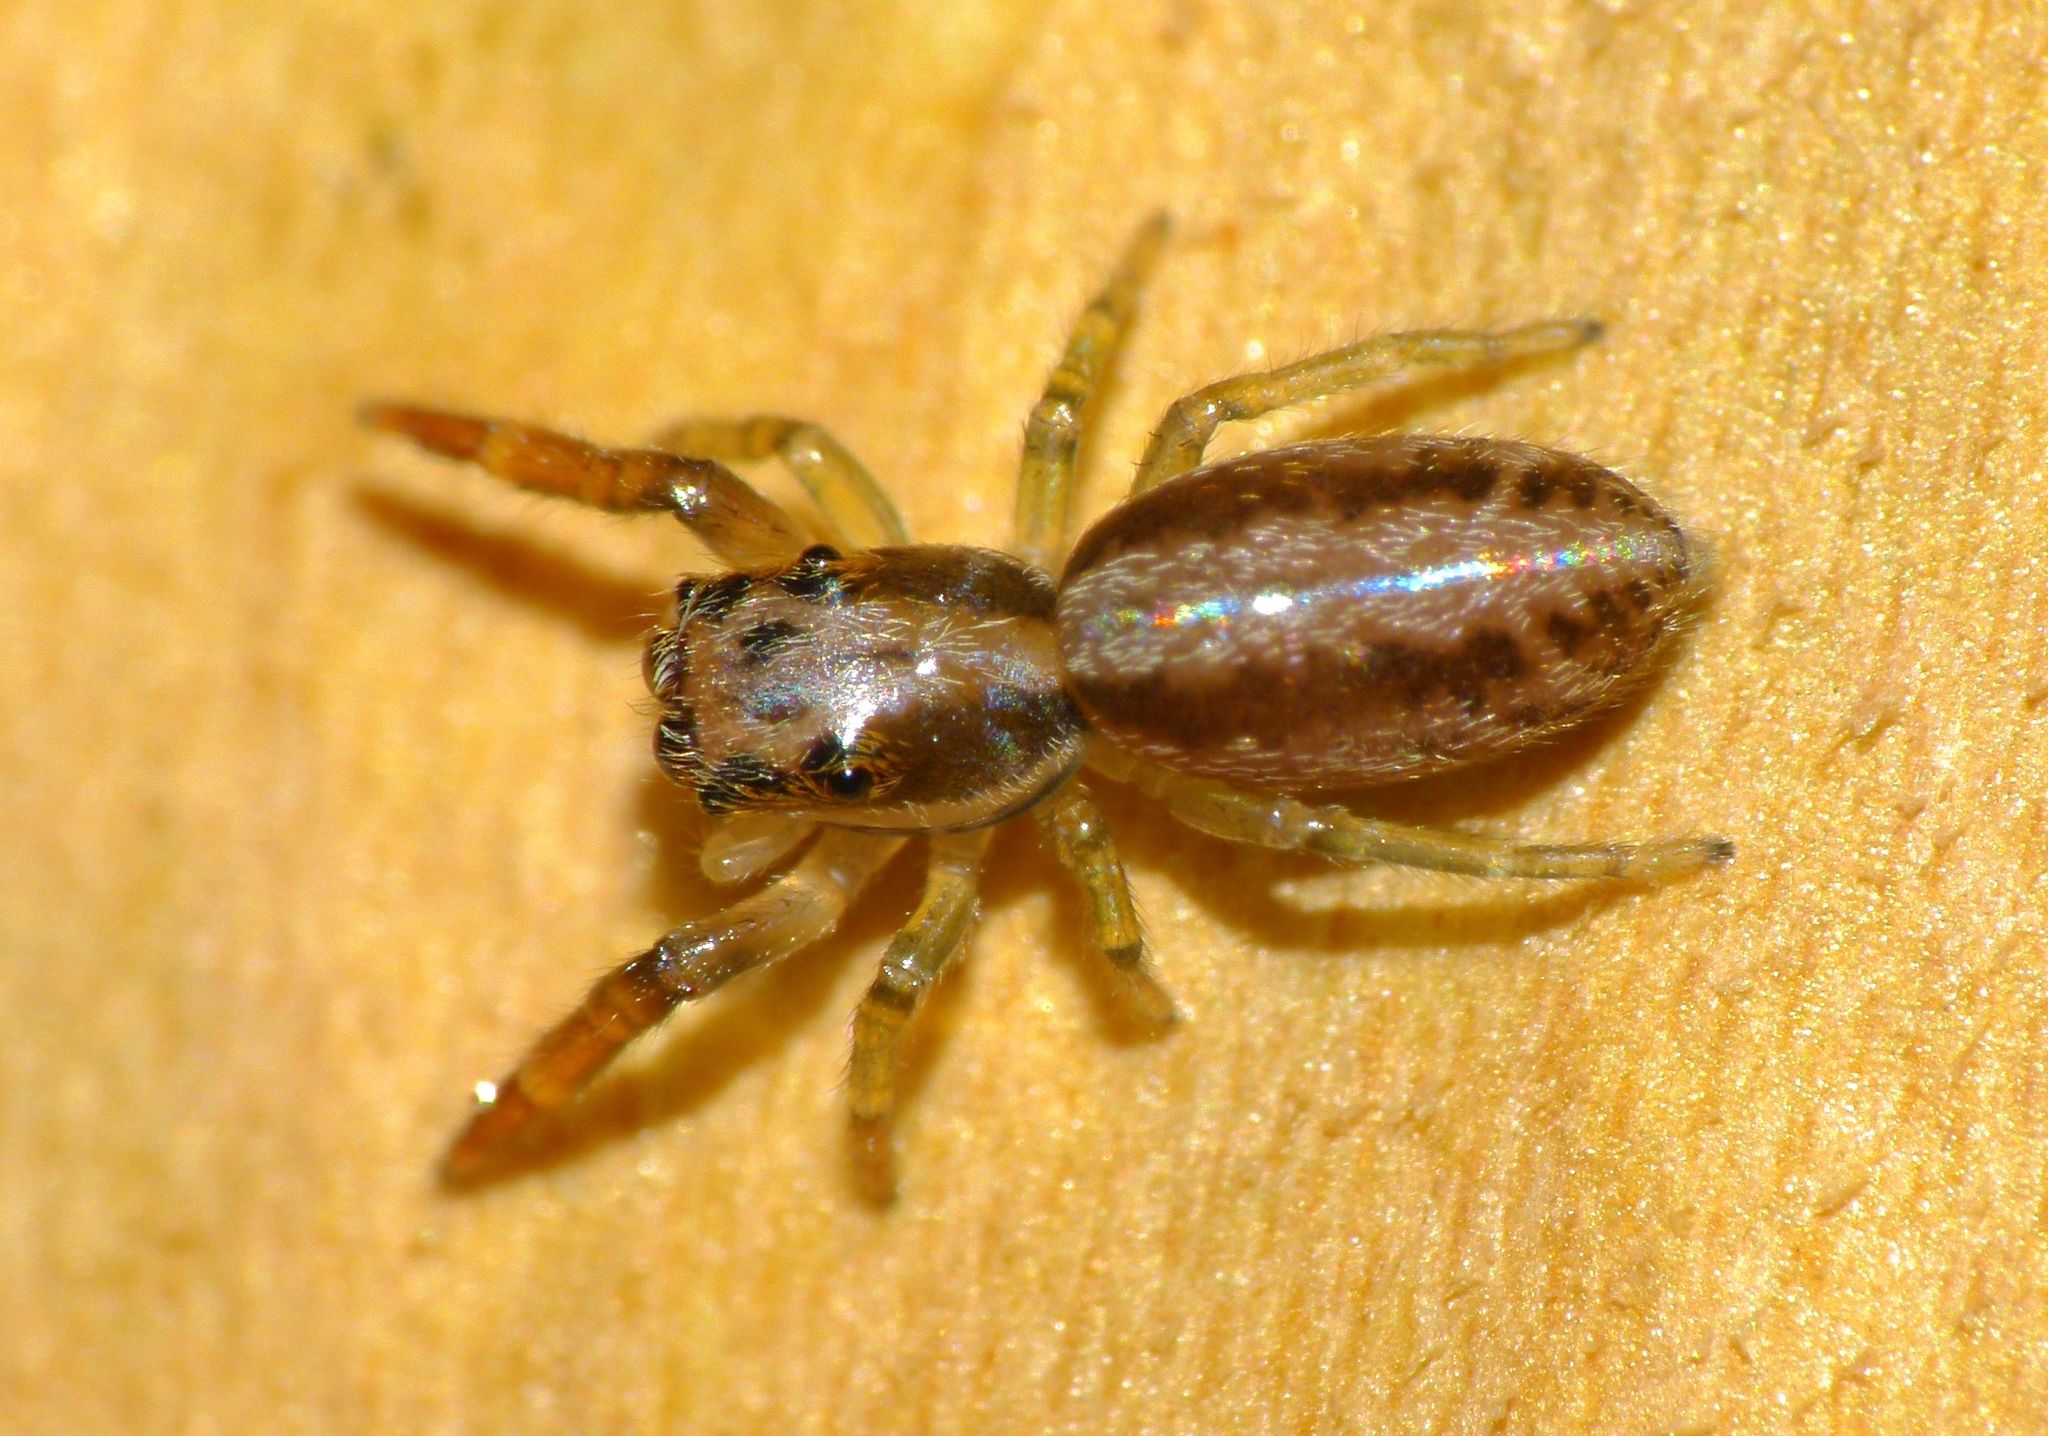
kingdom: Animalia
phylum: Arthropoda
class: Arachnida
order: Araneae
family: Salticidae
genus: Trite
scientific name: Trite mustilina
